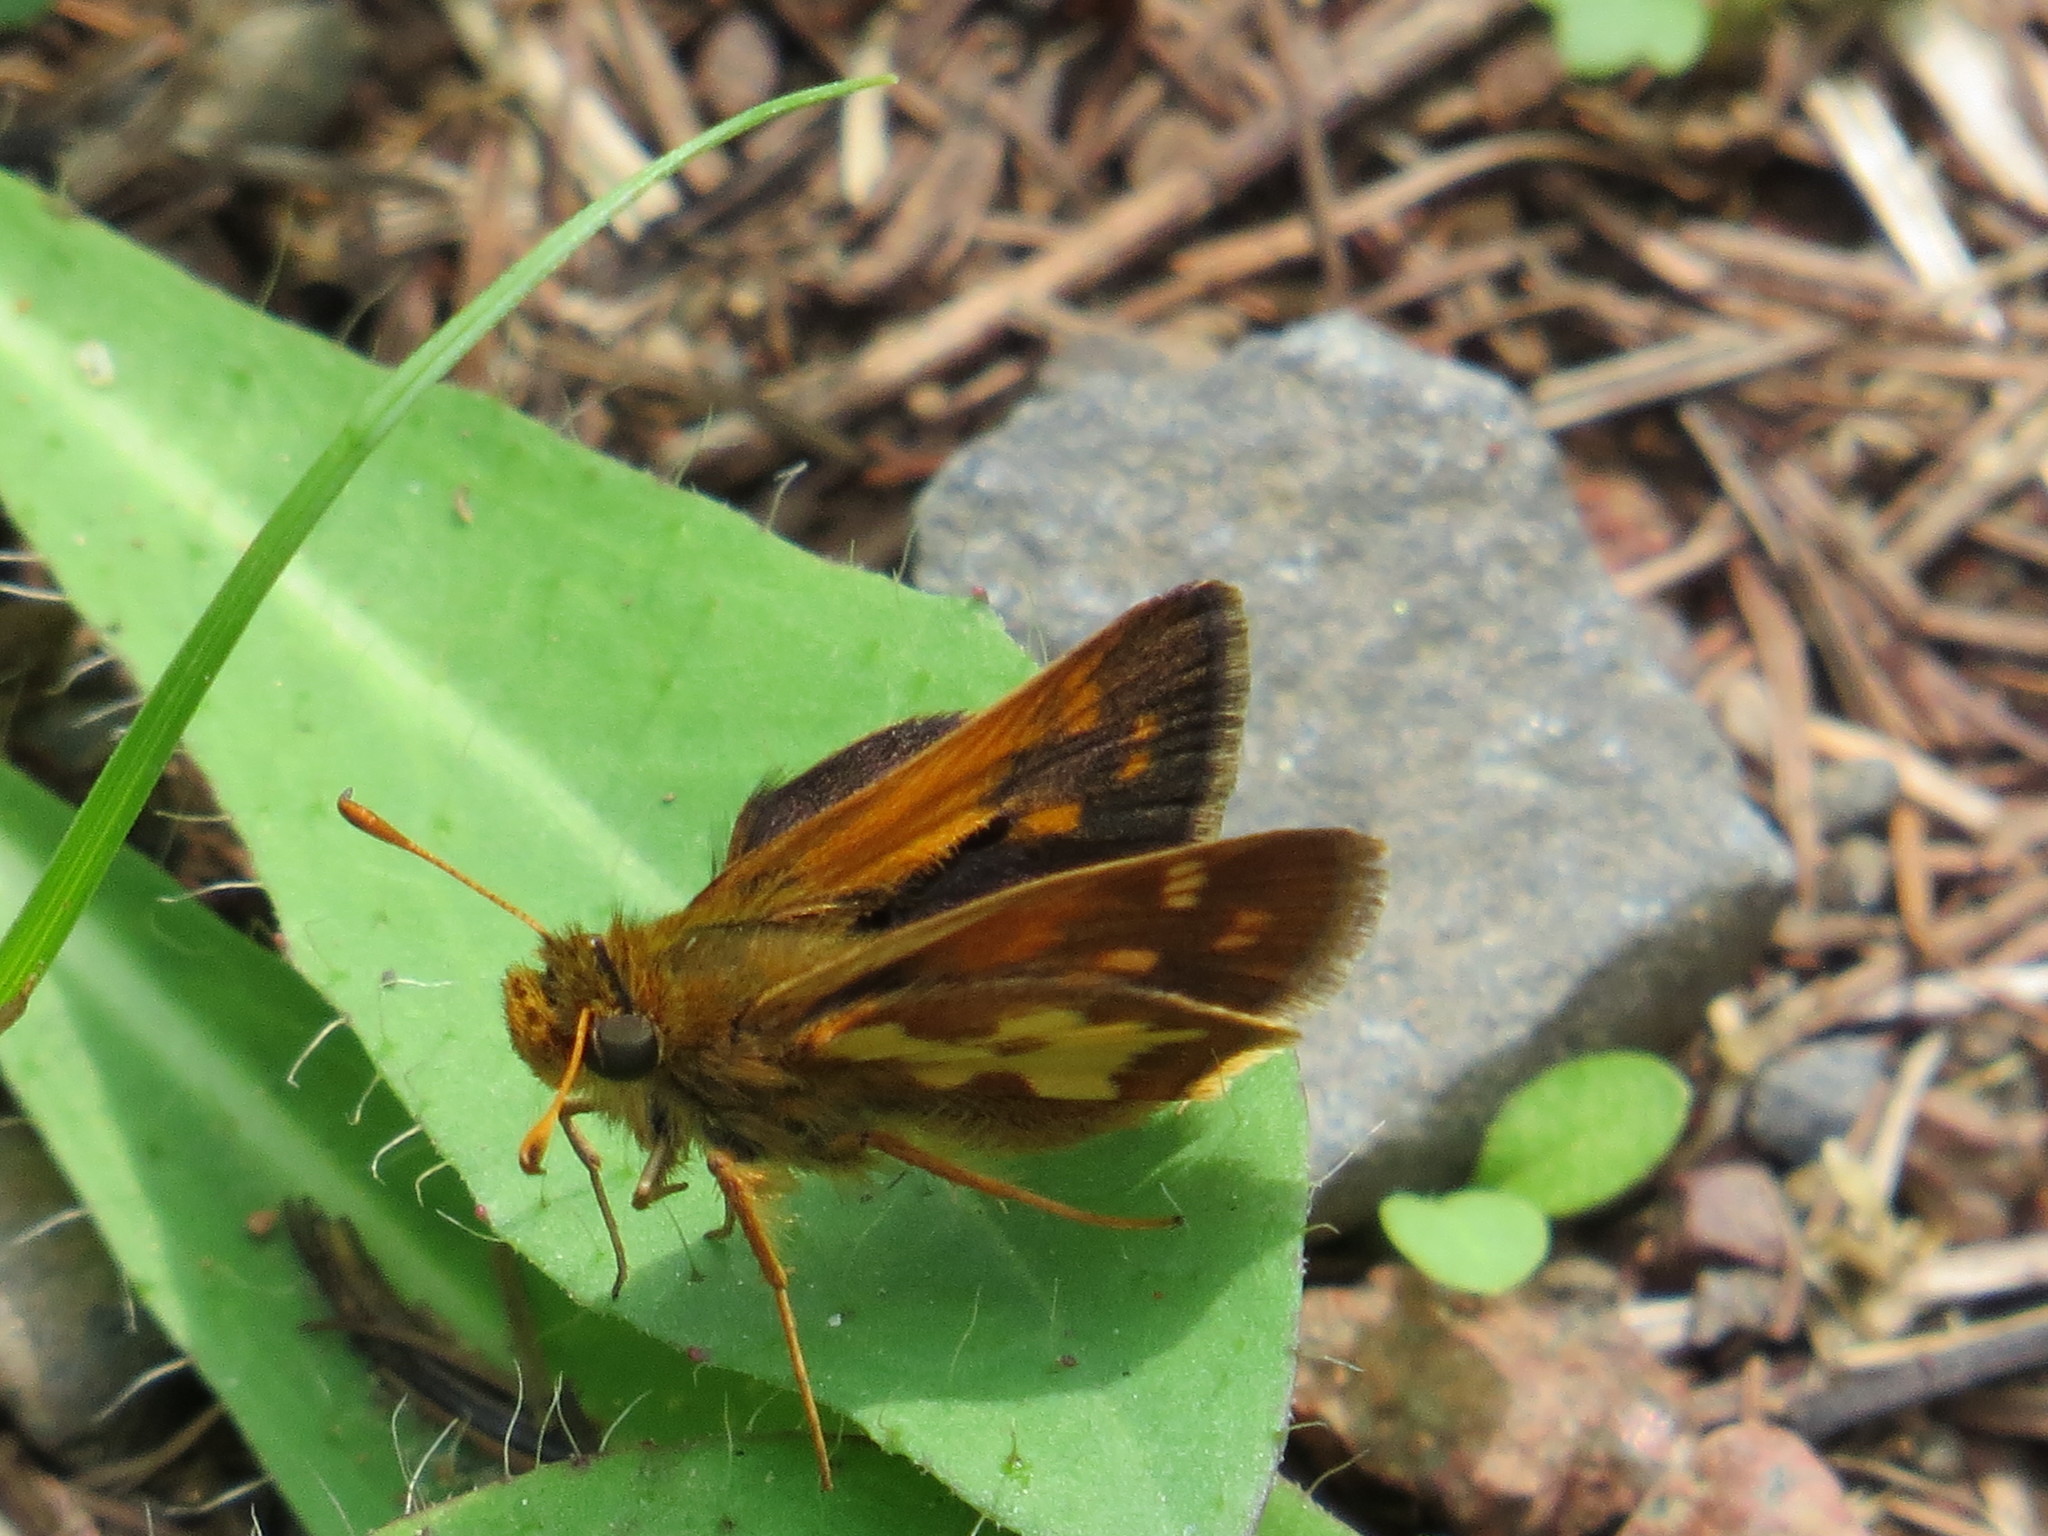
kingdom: Animalia
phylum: Arthropoda
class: Insecta
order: Lepidoptera
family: Hesperiidae
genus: Polites
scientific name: Polites coras
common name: Peck's skipper
